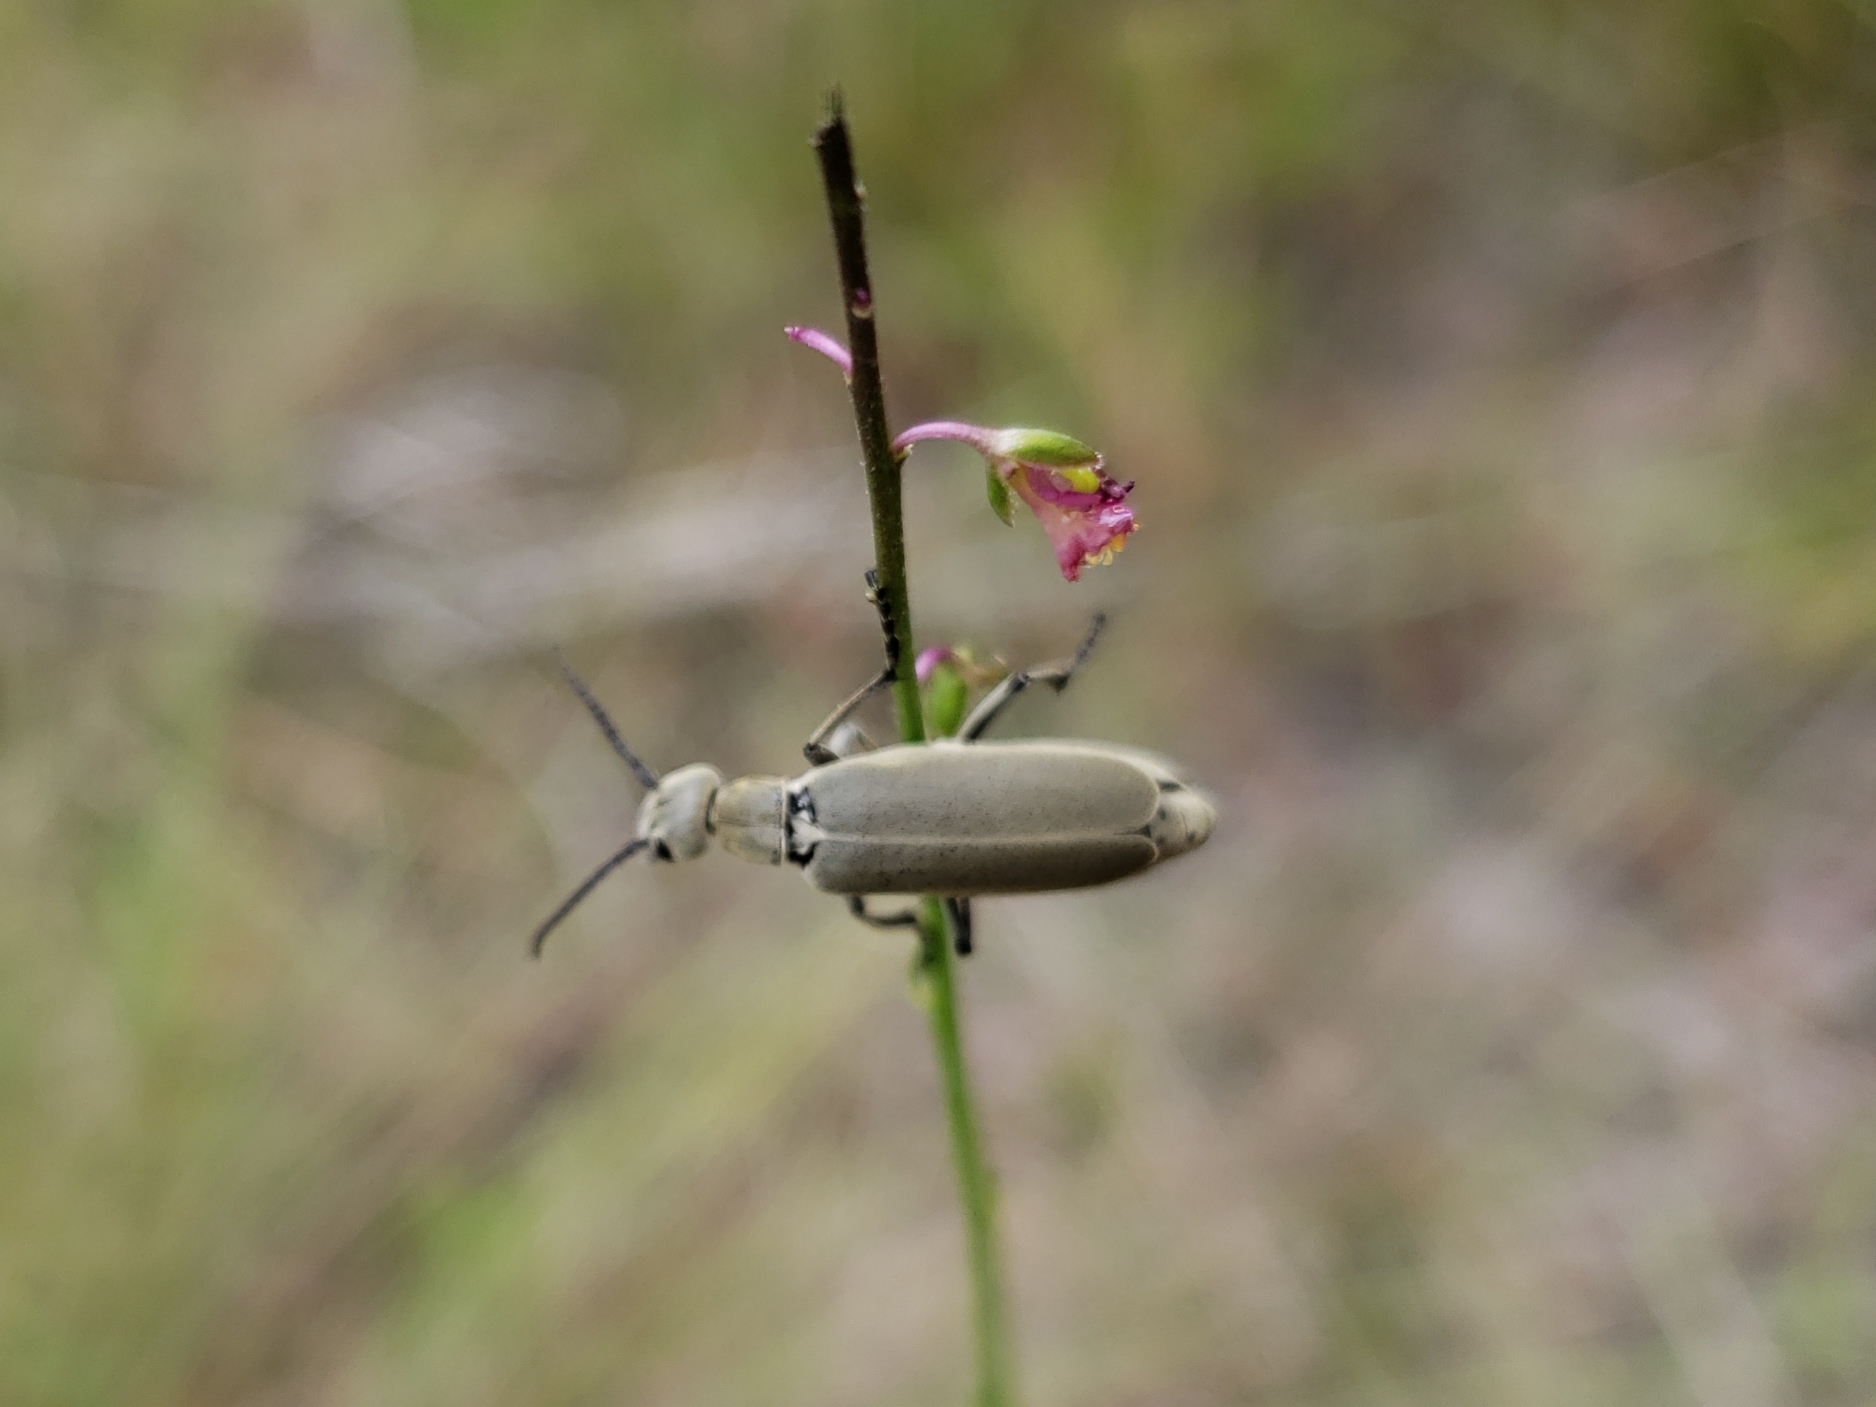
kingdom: Plantae
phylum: Tracheophyta
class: Magnoliopsida
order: Fabales
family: Fabaceae
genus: Indigofera
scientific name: Indigofera caroliniana
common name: Wild indigo
